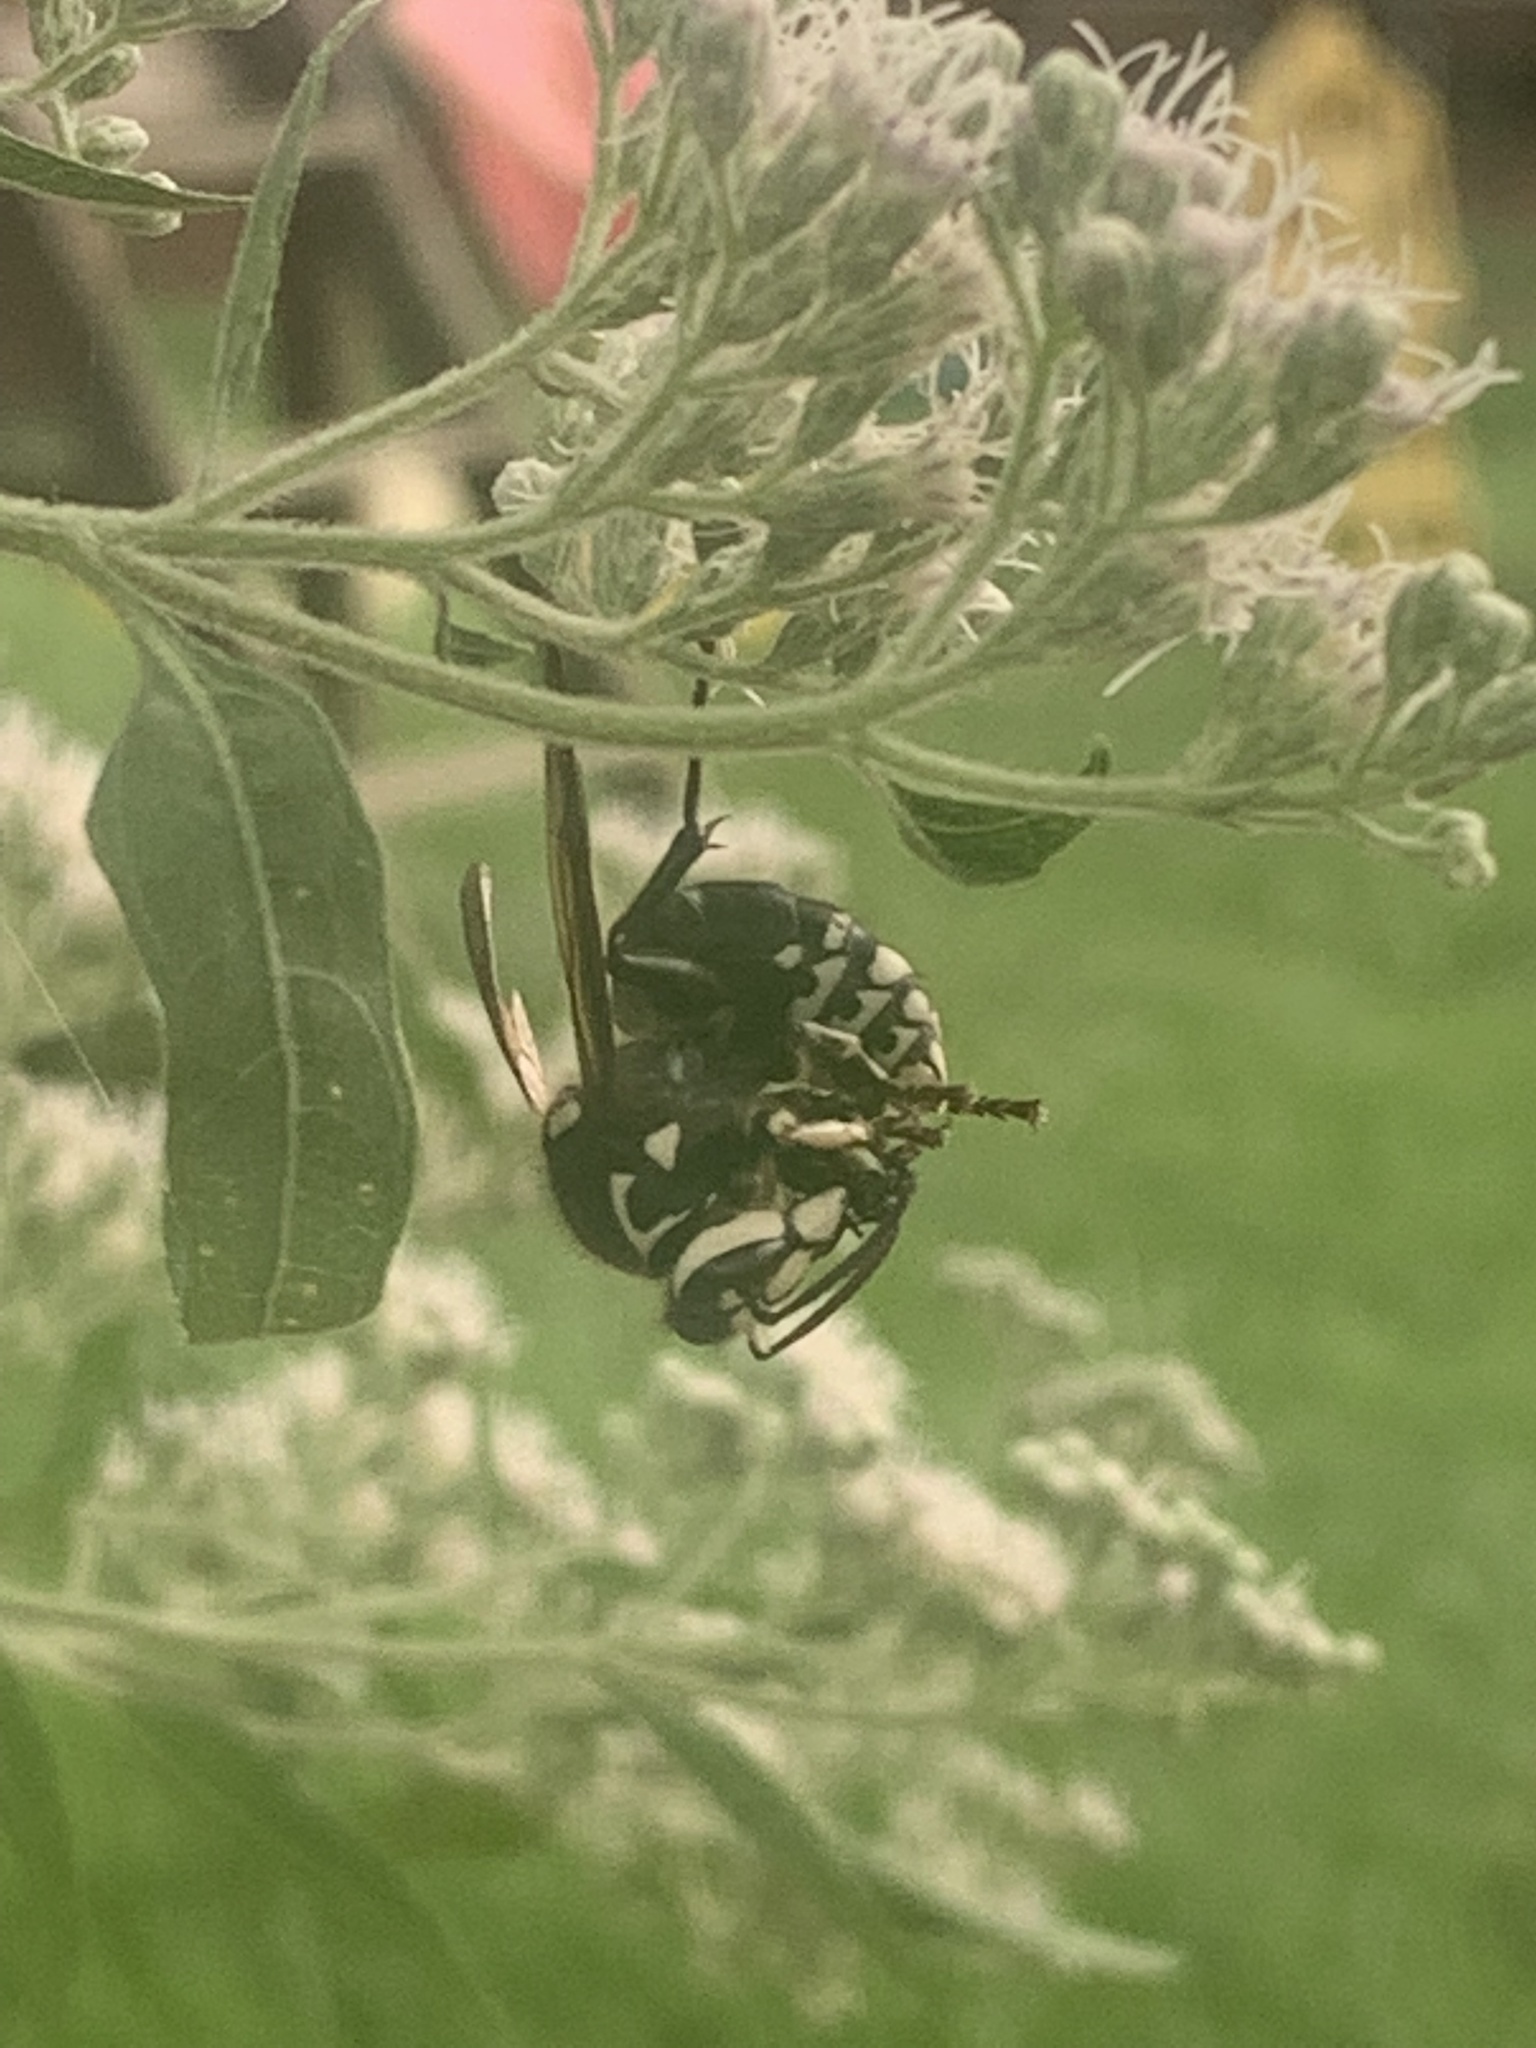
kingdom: Animalia
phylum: Arthropoda
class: Insecta
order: Hymenoptera
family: Vespidae
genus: Dolichovespula
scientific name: Dolichovespula maculata
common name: Bald-faced hornet
